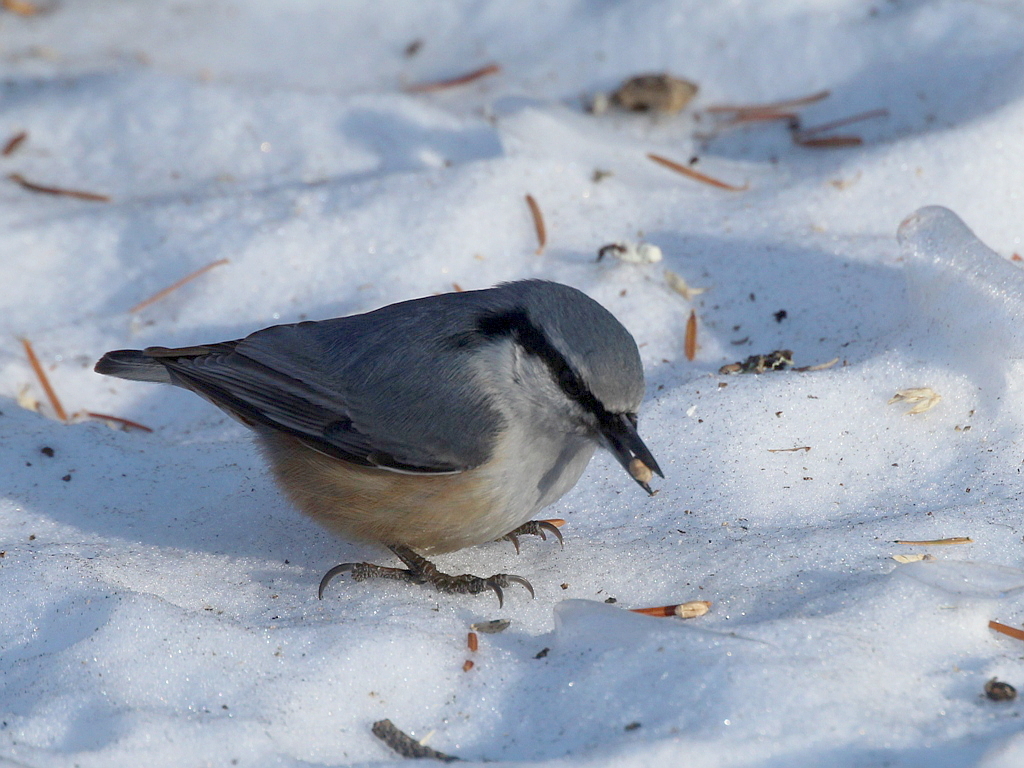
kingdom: Animalia
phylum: Chordata
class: Aves
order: Passeriformes
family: Sittidae
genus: Sitta
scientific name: Sitta europaea
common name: Eurasian nuthatch
